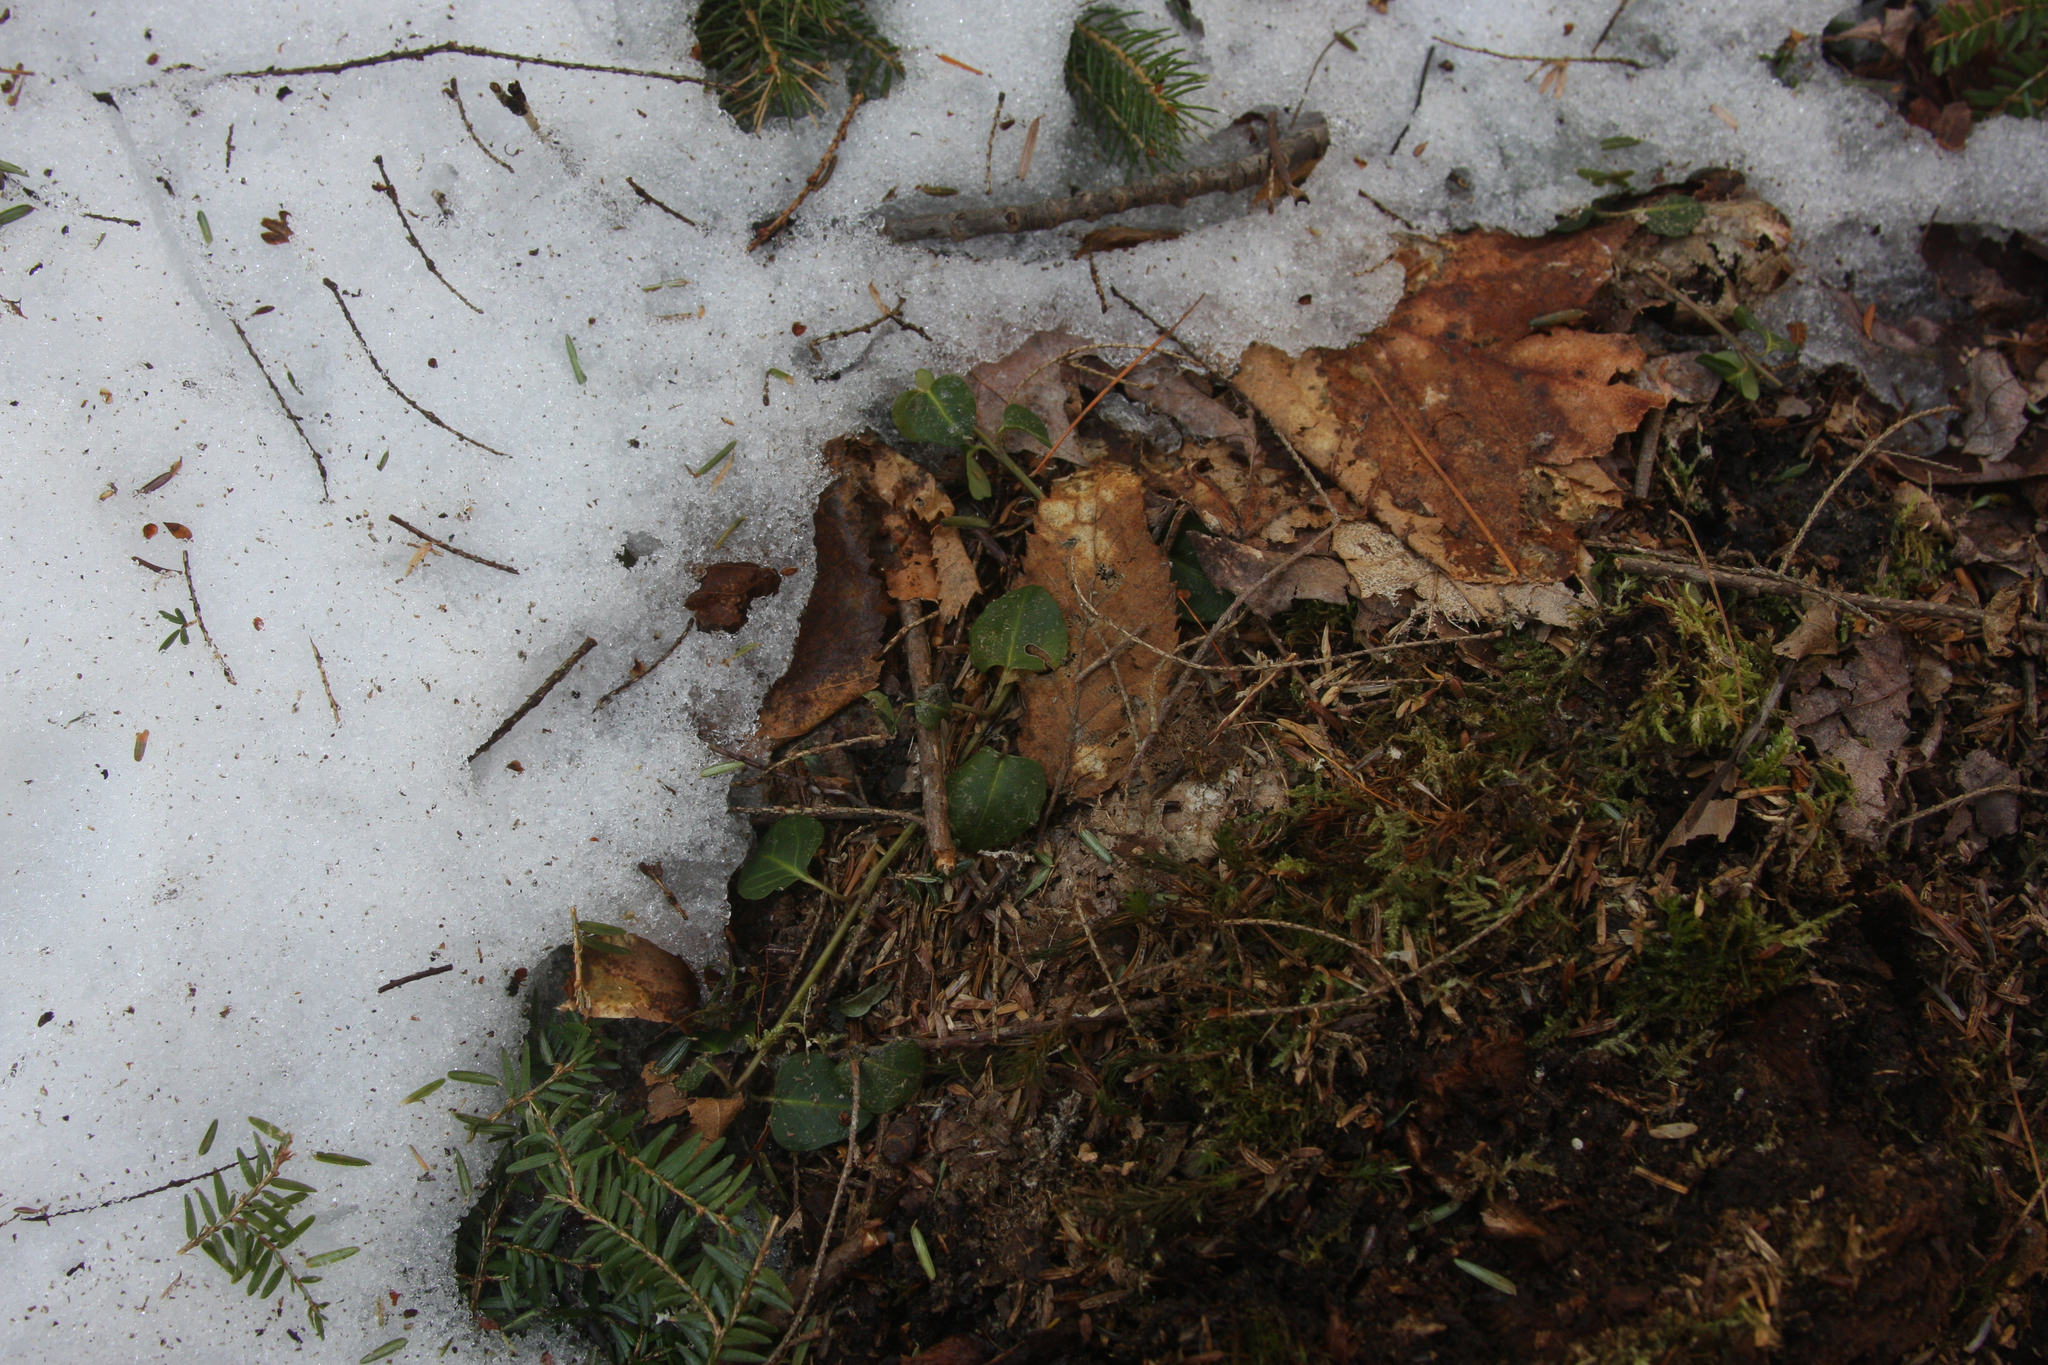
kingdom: Plantae
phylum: Tracheophyta
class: Magnoliopsida
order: Gentianales
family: Rubiaceae
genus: Mitchella
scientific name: Mitchella repens
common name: Partridge-berry
